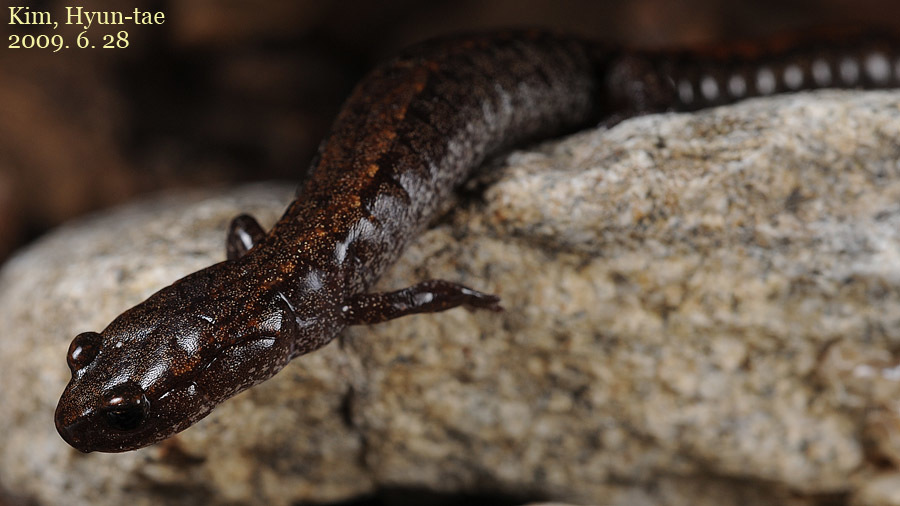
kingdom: Animalia
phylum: Chordata
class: Amphibia
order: Caudata
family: Plethodontidae
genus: Karsenia
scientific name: Karsenia koreana
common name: Korean crevice salamander
